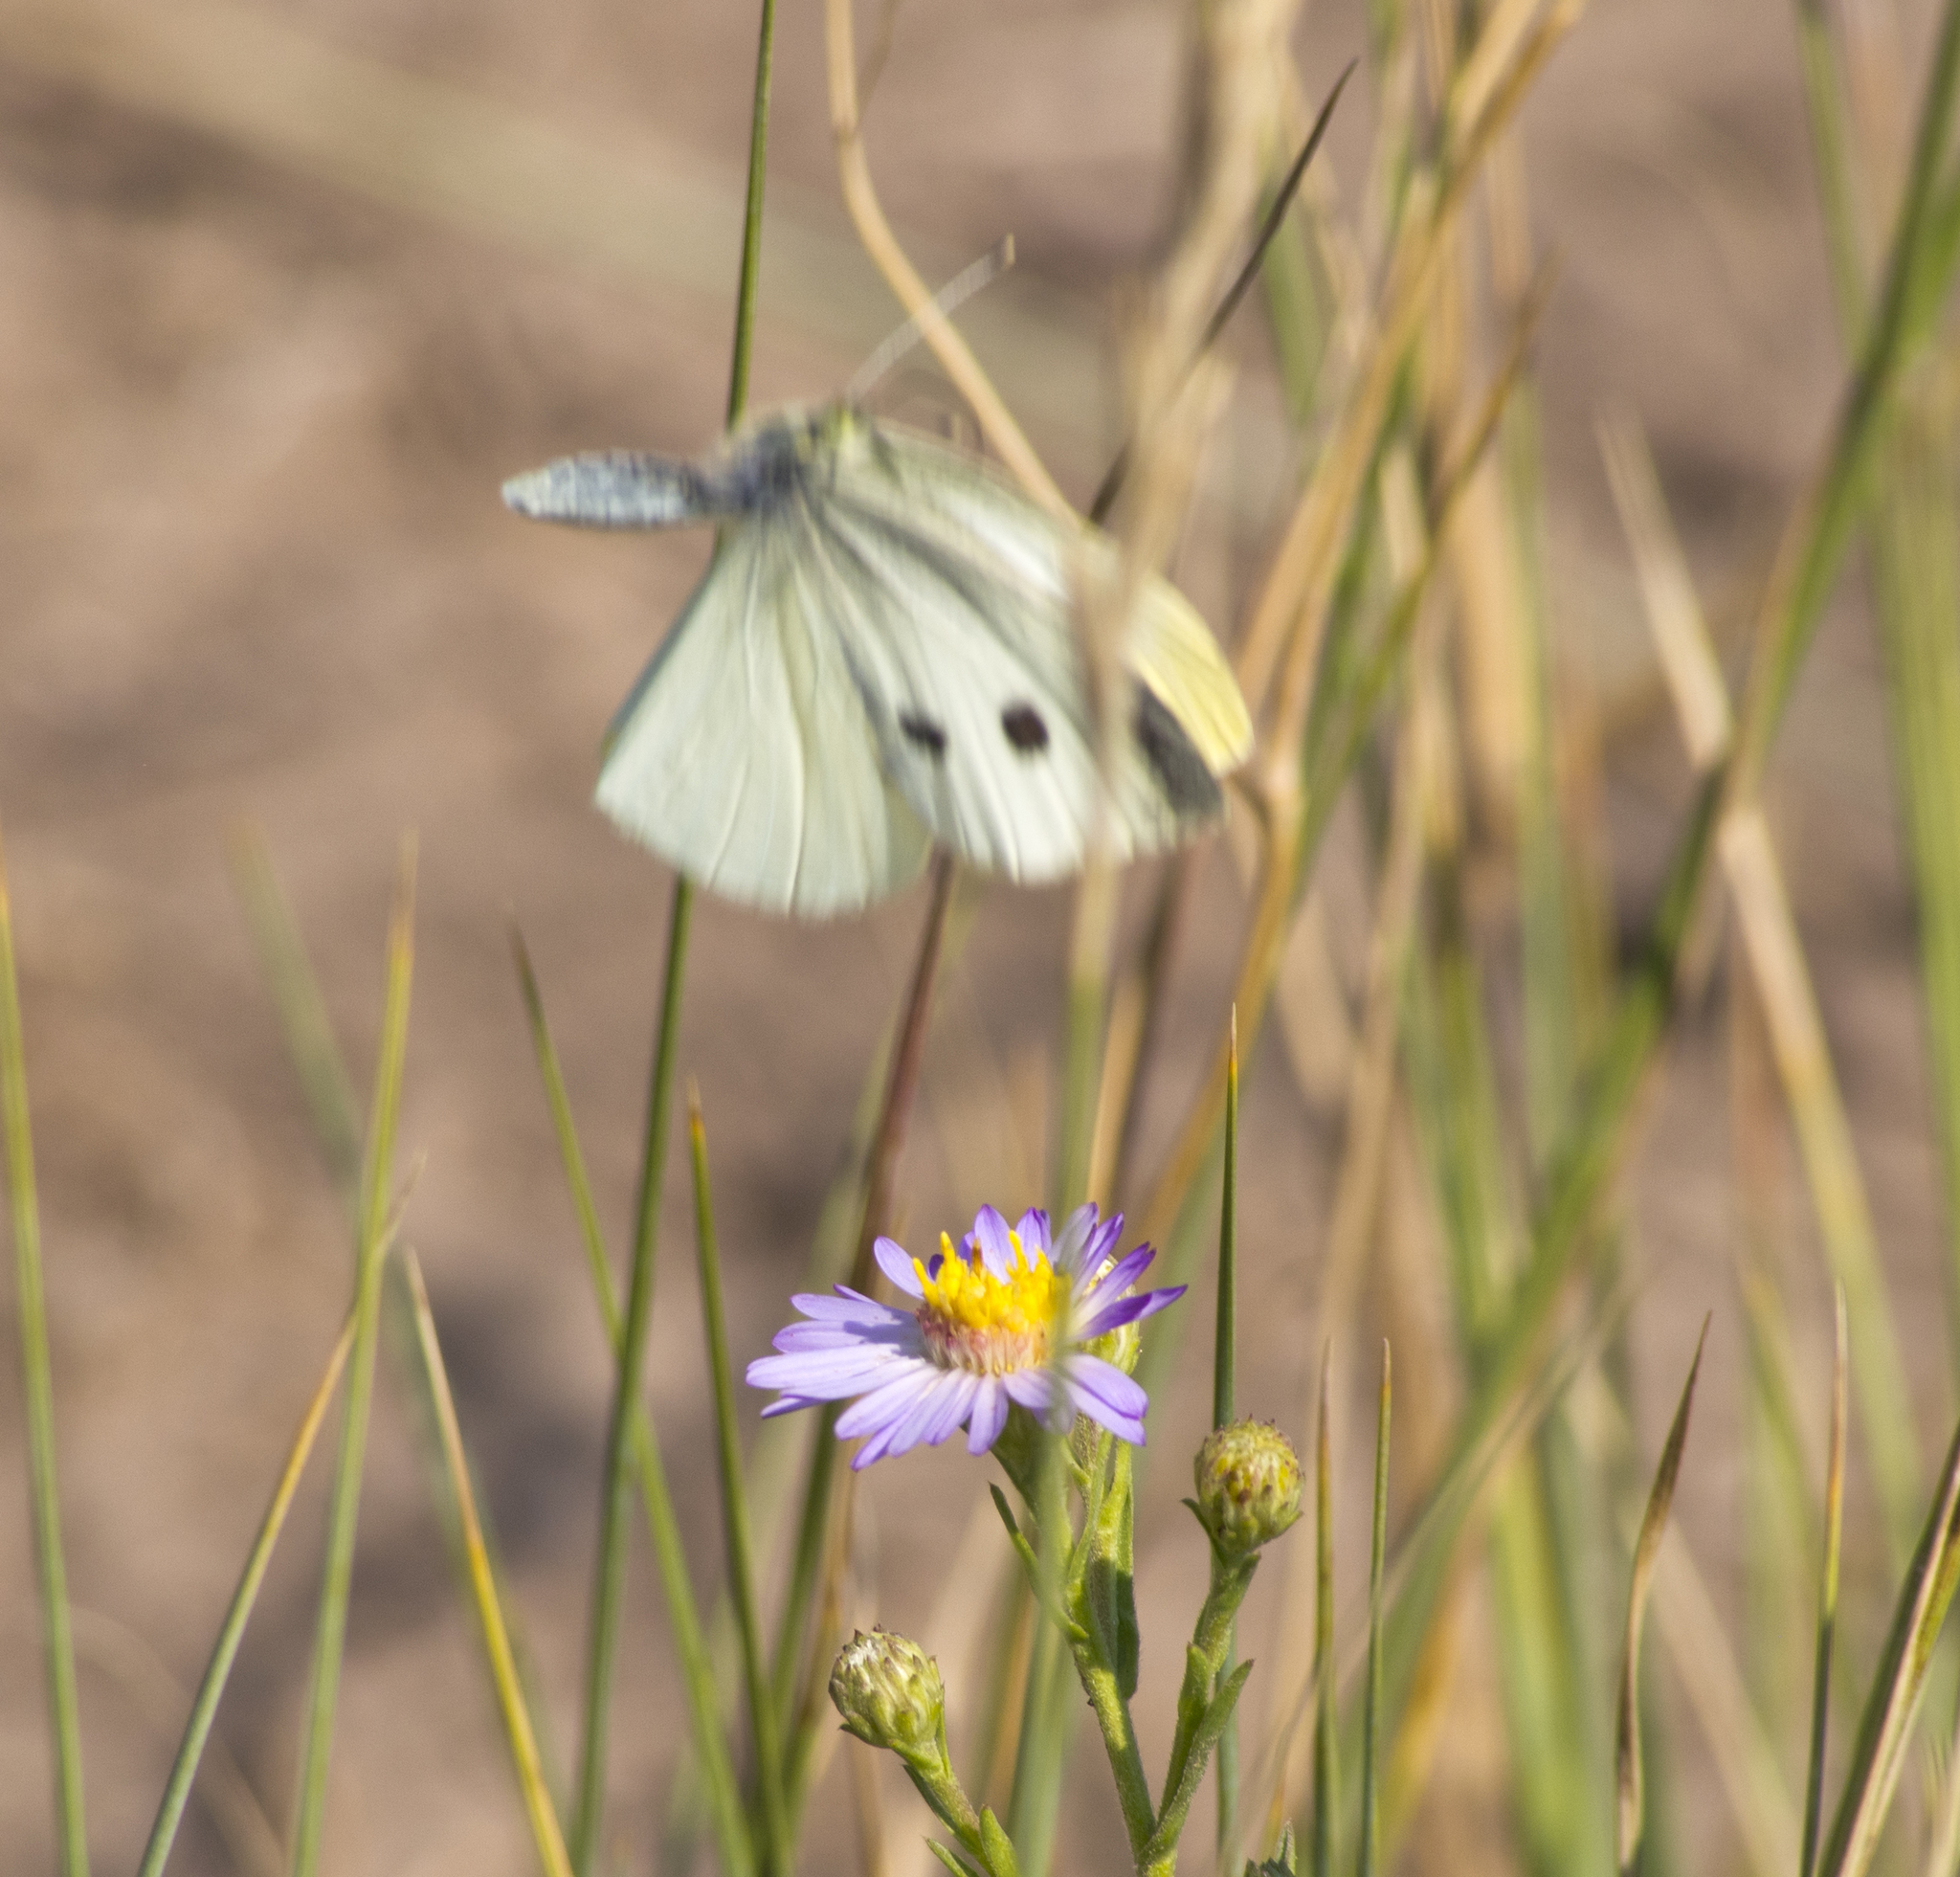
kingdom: Animalia
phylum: Arthropoda
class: Insecta
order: Lepidoptera
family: Pieridae
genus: Pieris
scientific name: Pieris rapae
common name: Small white
